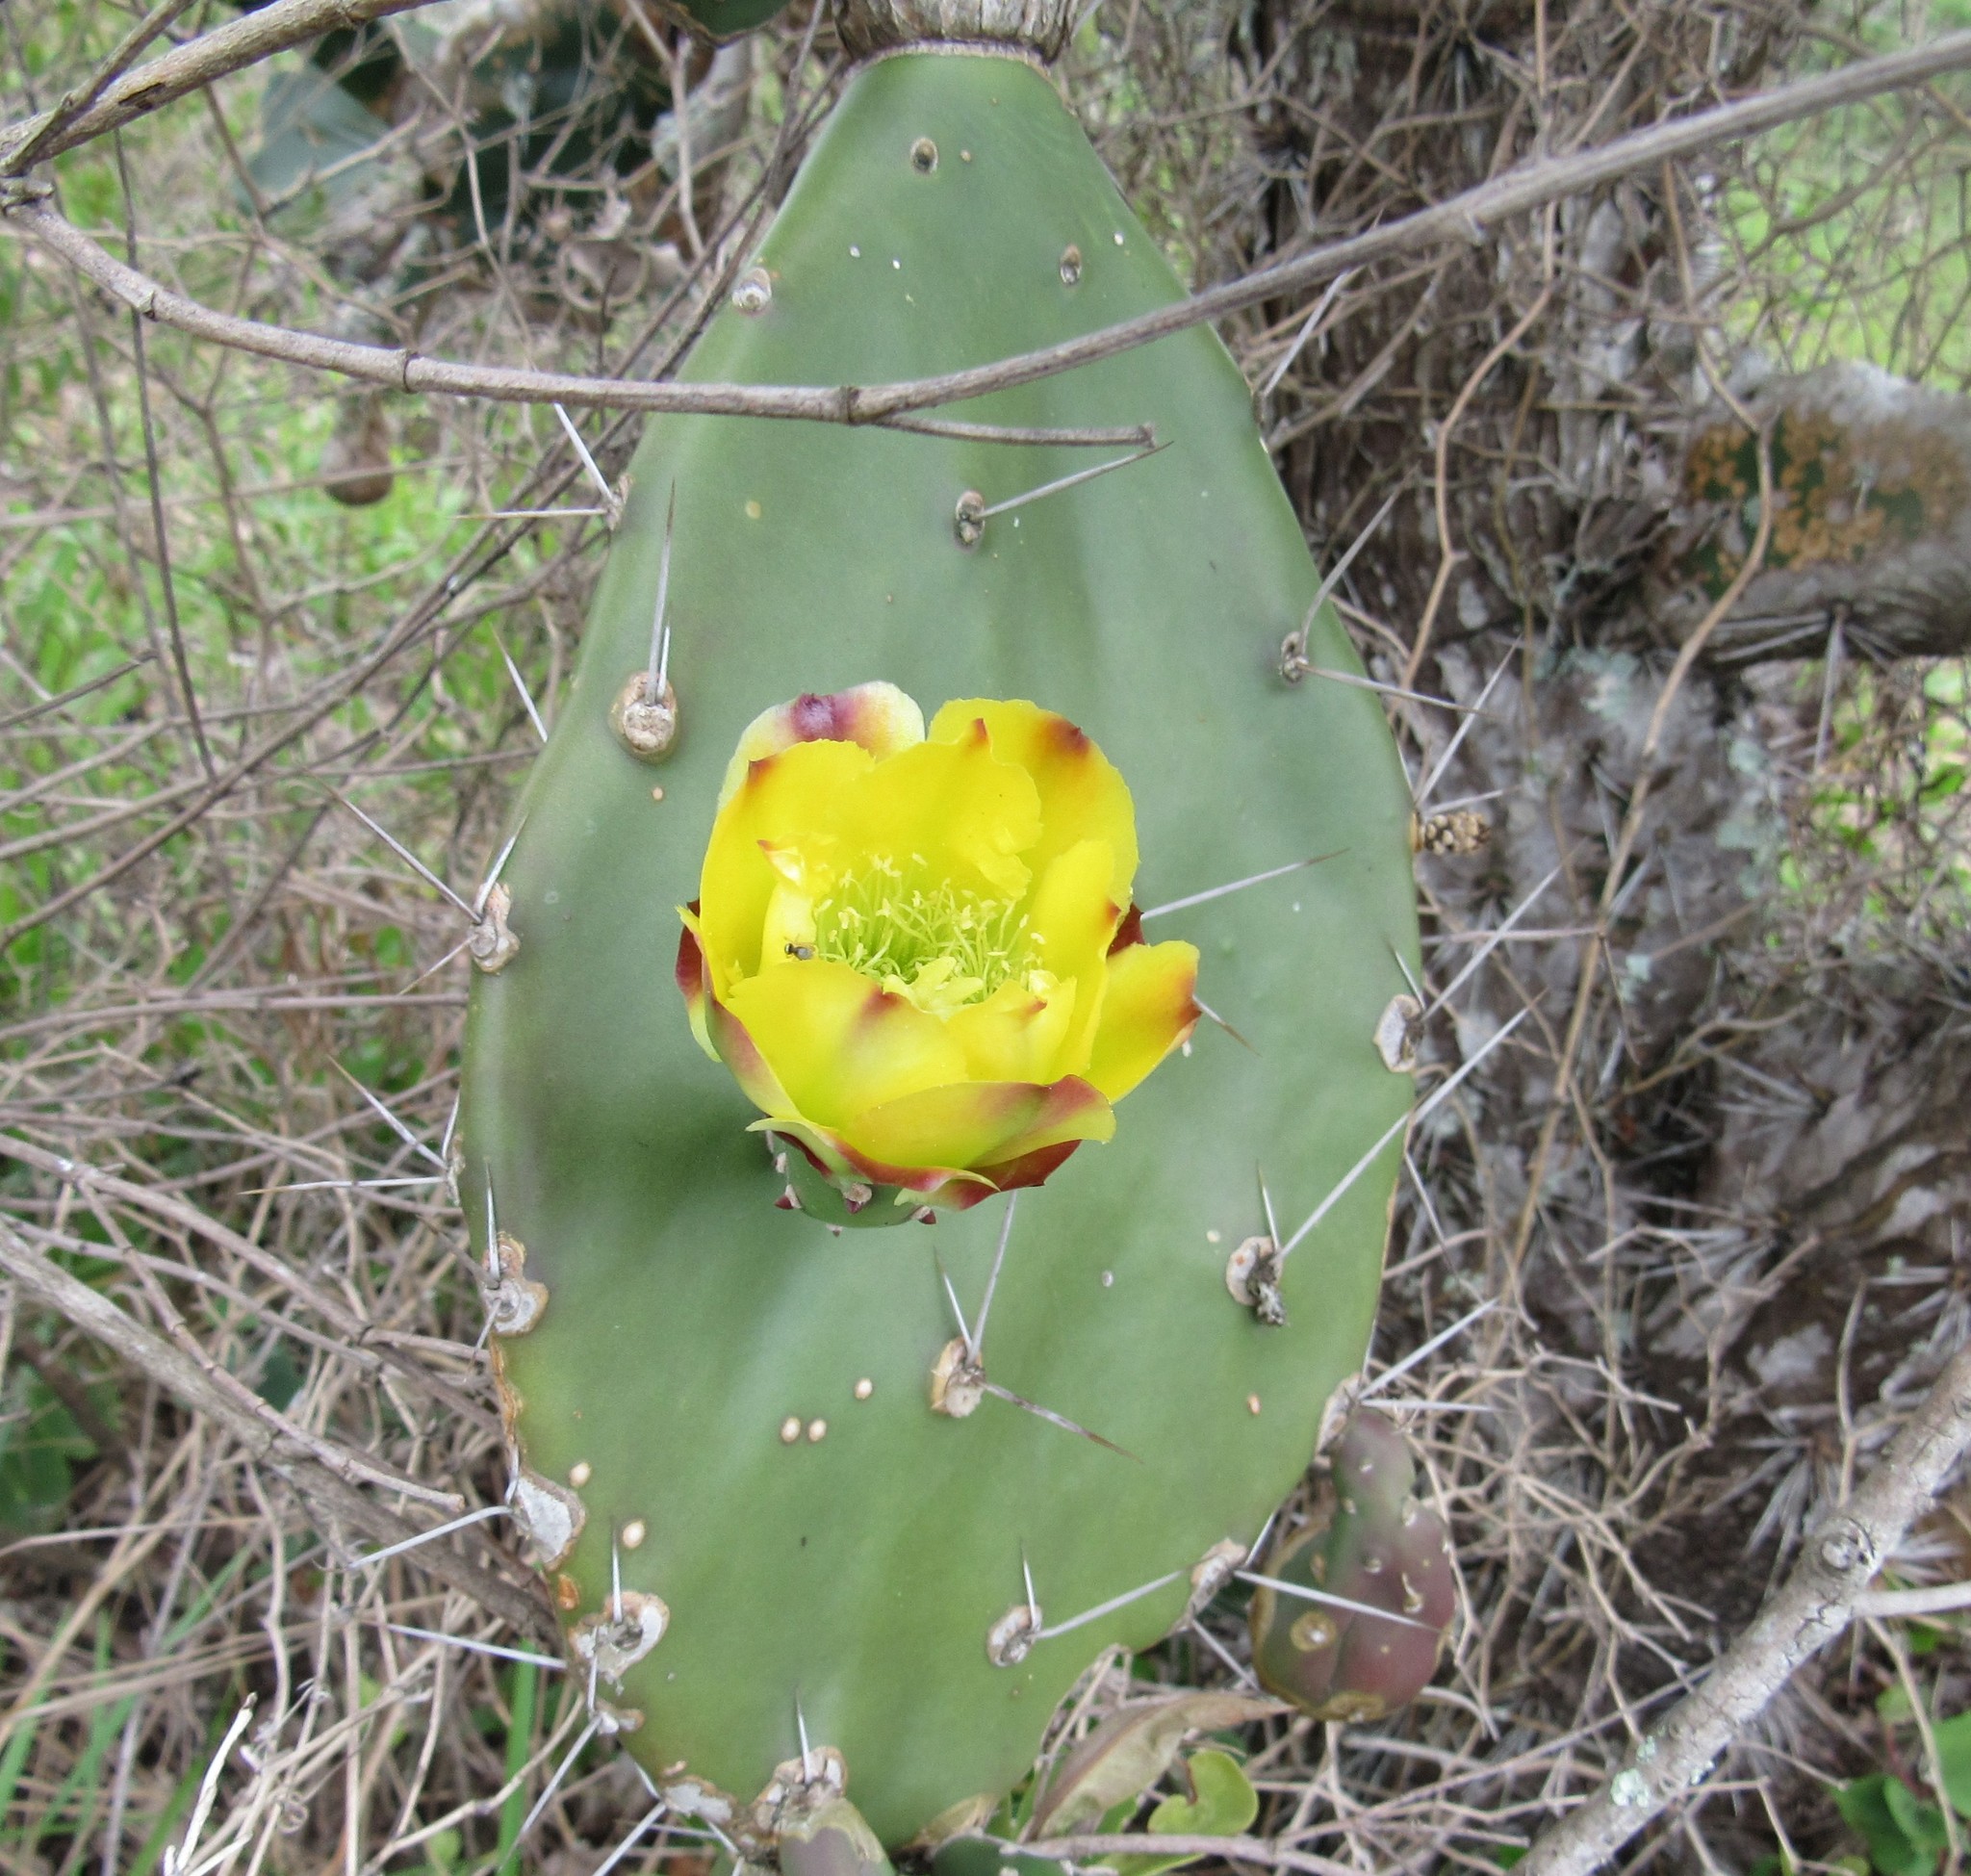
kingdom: Plantae
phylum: Tracheophyta
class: Magnoliopsida
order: Caryophyllales
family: Cactaceae
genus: Opuntia
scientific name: Opuntia monacantha
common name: Common pricklypear
